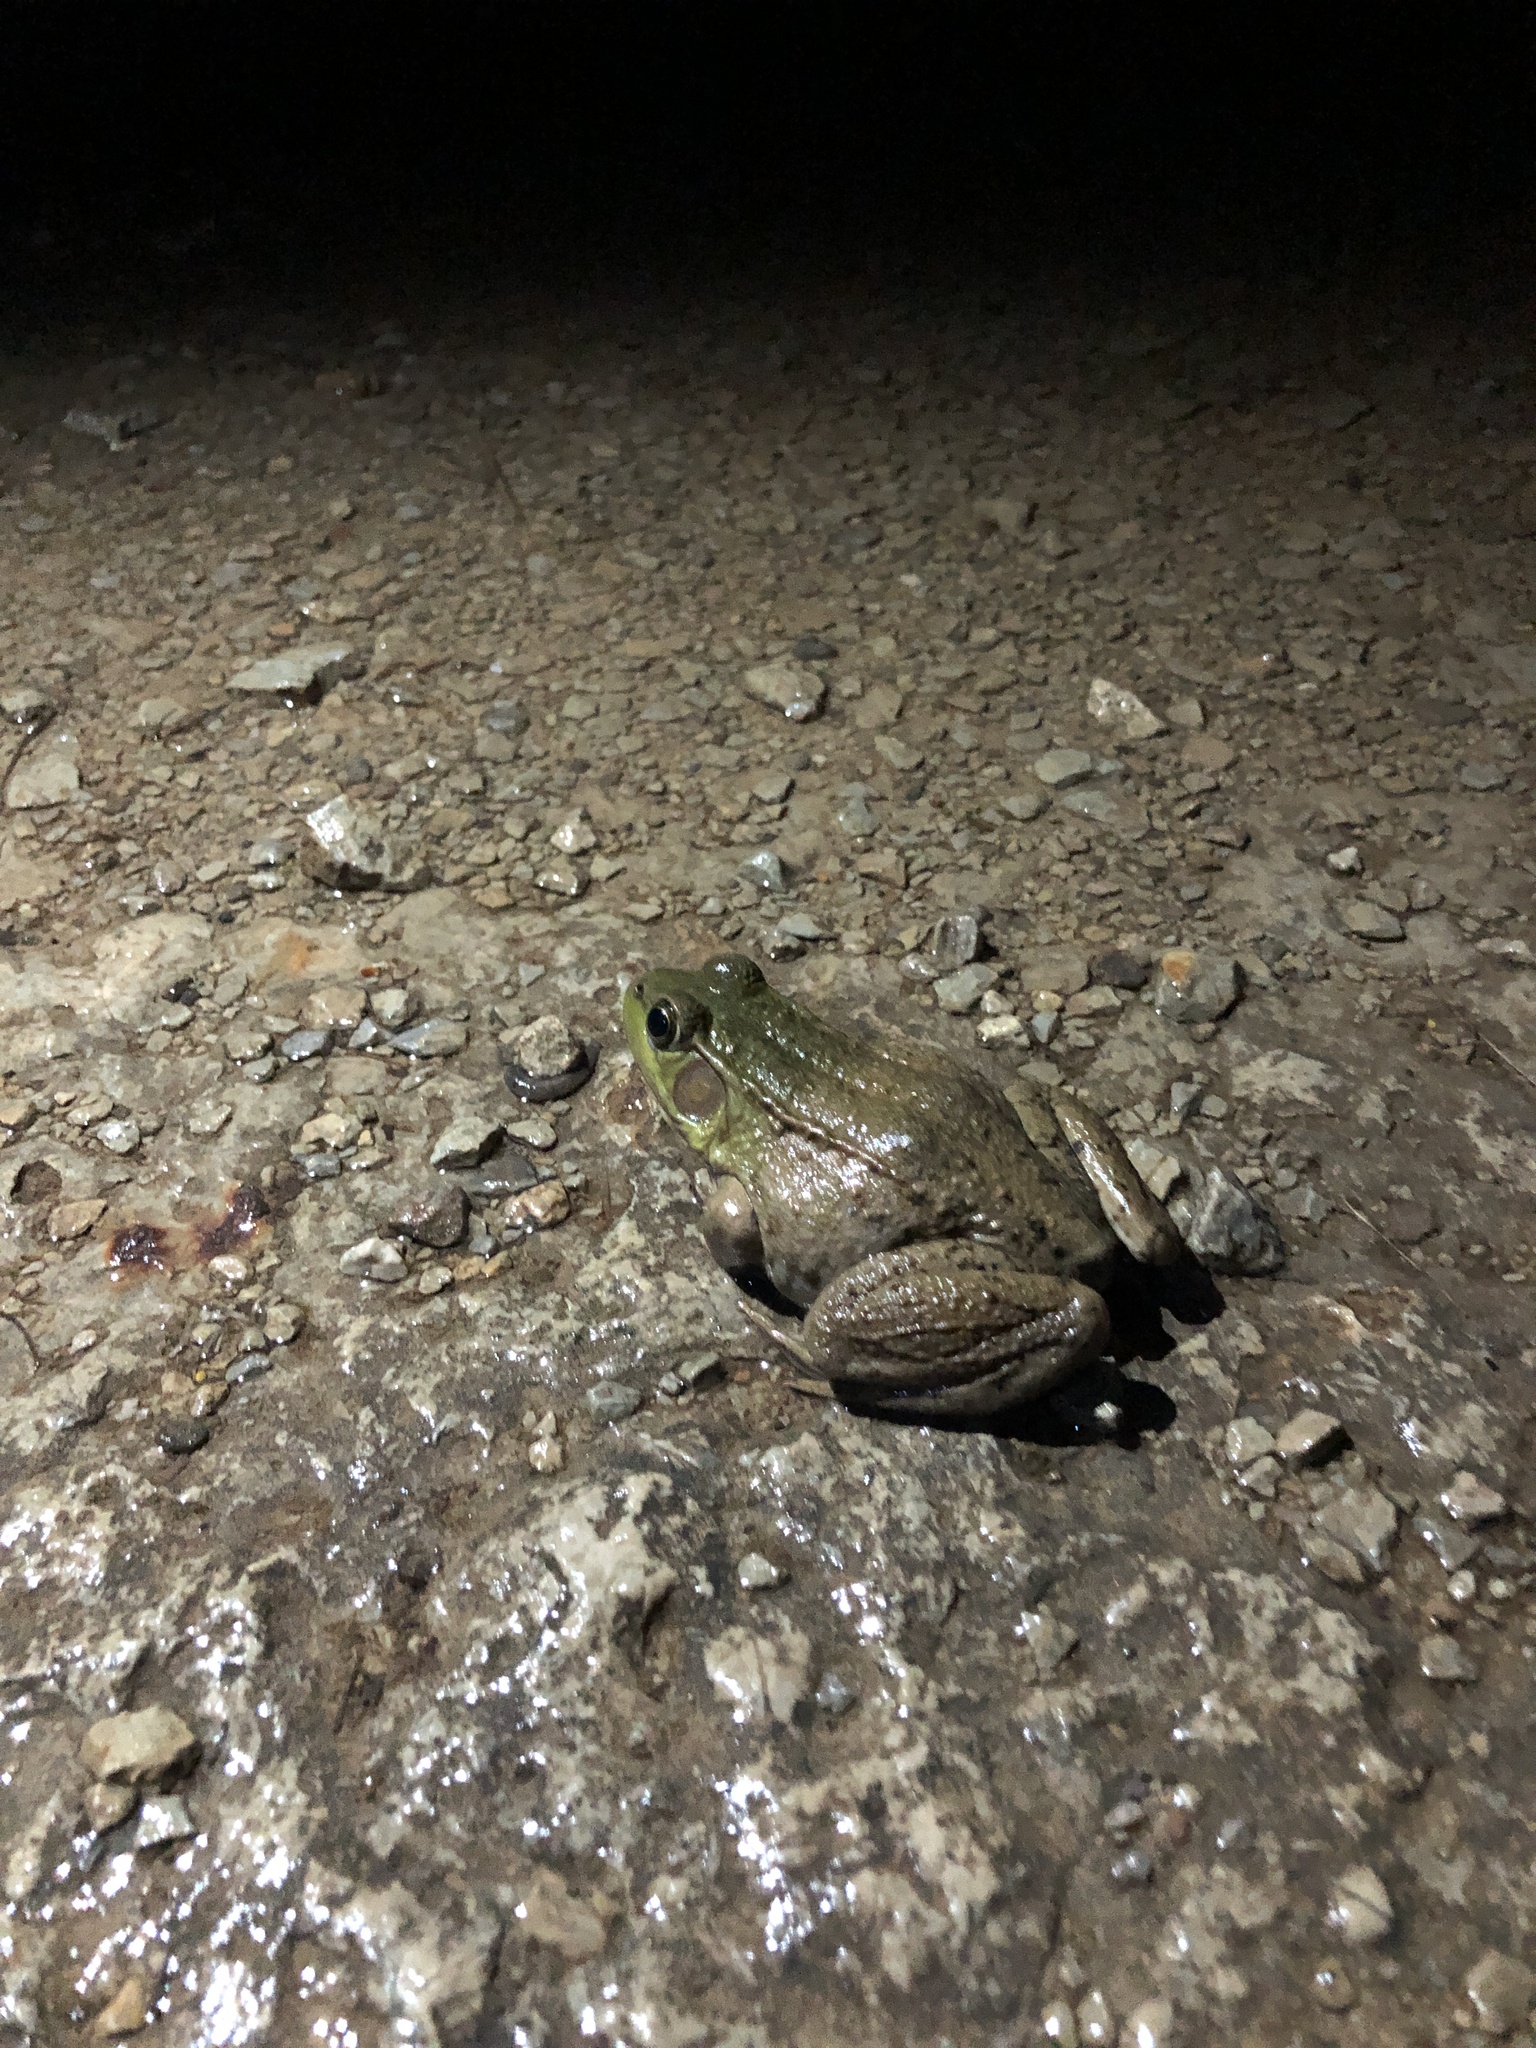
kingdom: Animalia
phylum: Chordata
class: Amphibia
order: Anura
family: Ranidae
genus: Lithobates
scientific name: Lithobates clamitans
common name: Green frog
